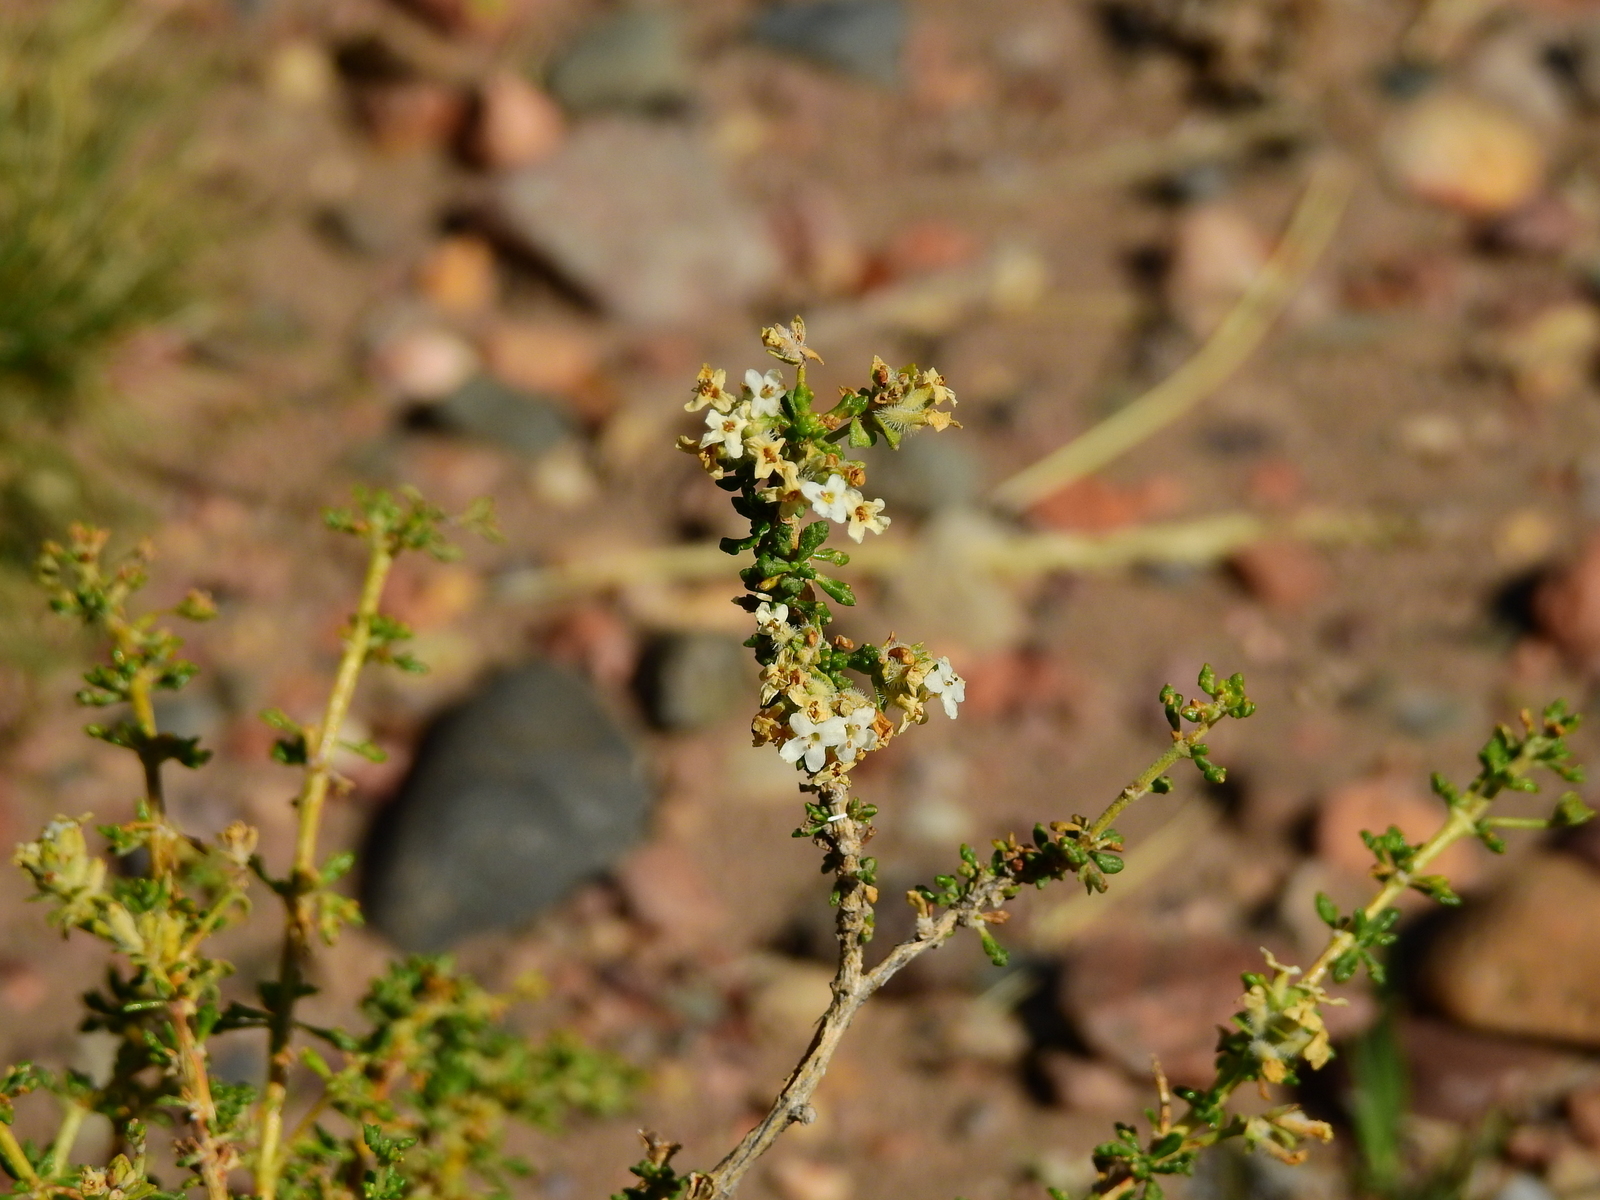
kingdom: Plantae
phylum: Tracheophyta
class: Magnoliopsida
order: Lamiales
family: Verbenaceae
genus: Acantholippia
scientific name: Acantholippia seriphioides
